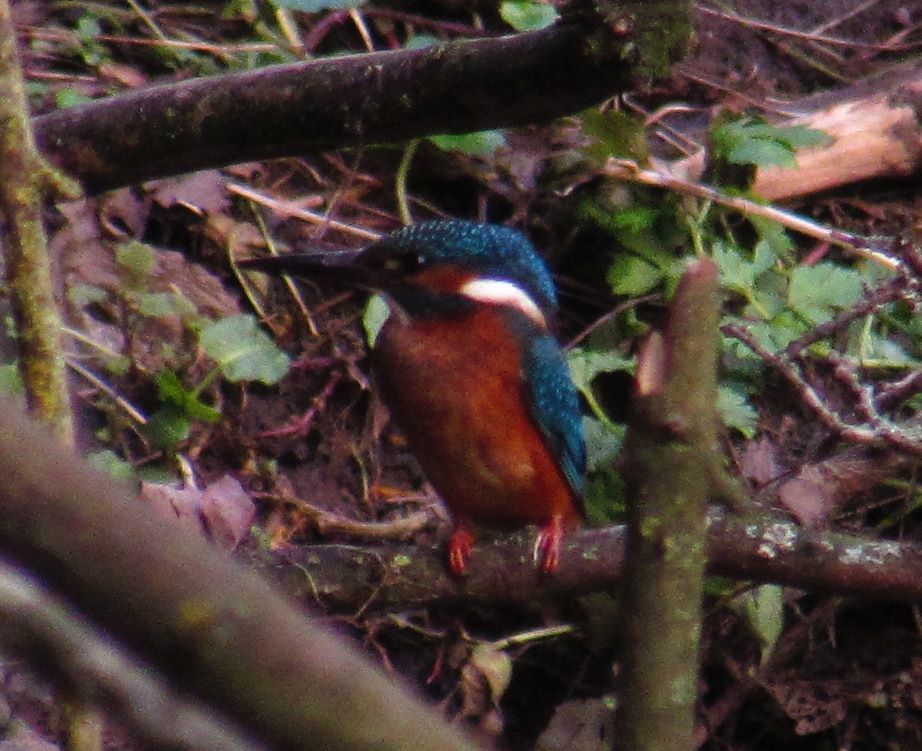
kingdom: Animalia
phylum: Chordata
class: Aves
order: Coraciiformes
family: Alcedinidae
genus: Alcedo
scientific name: Alcedo atthis
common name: Common kingfisher
